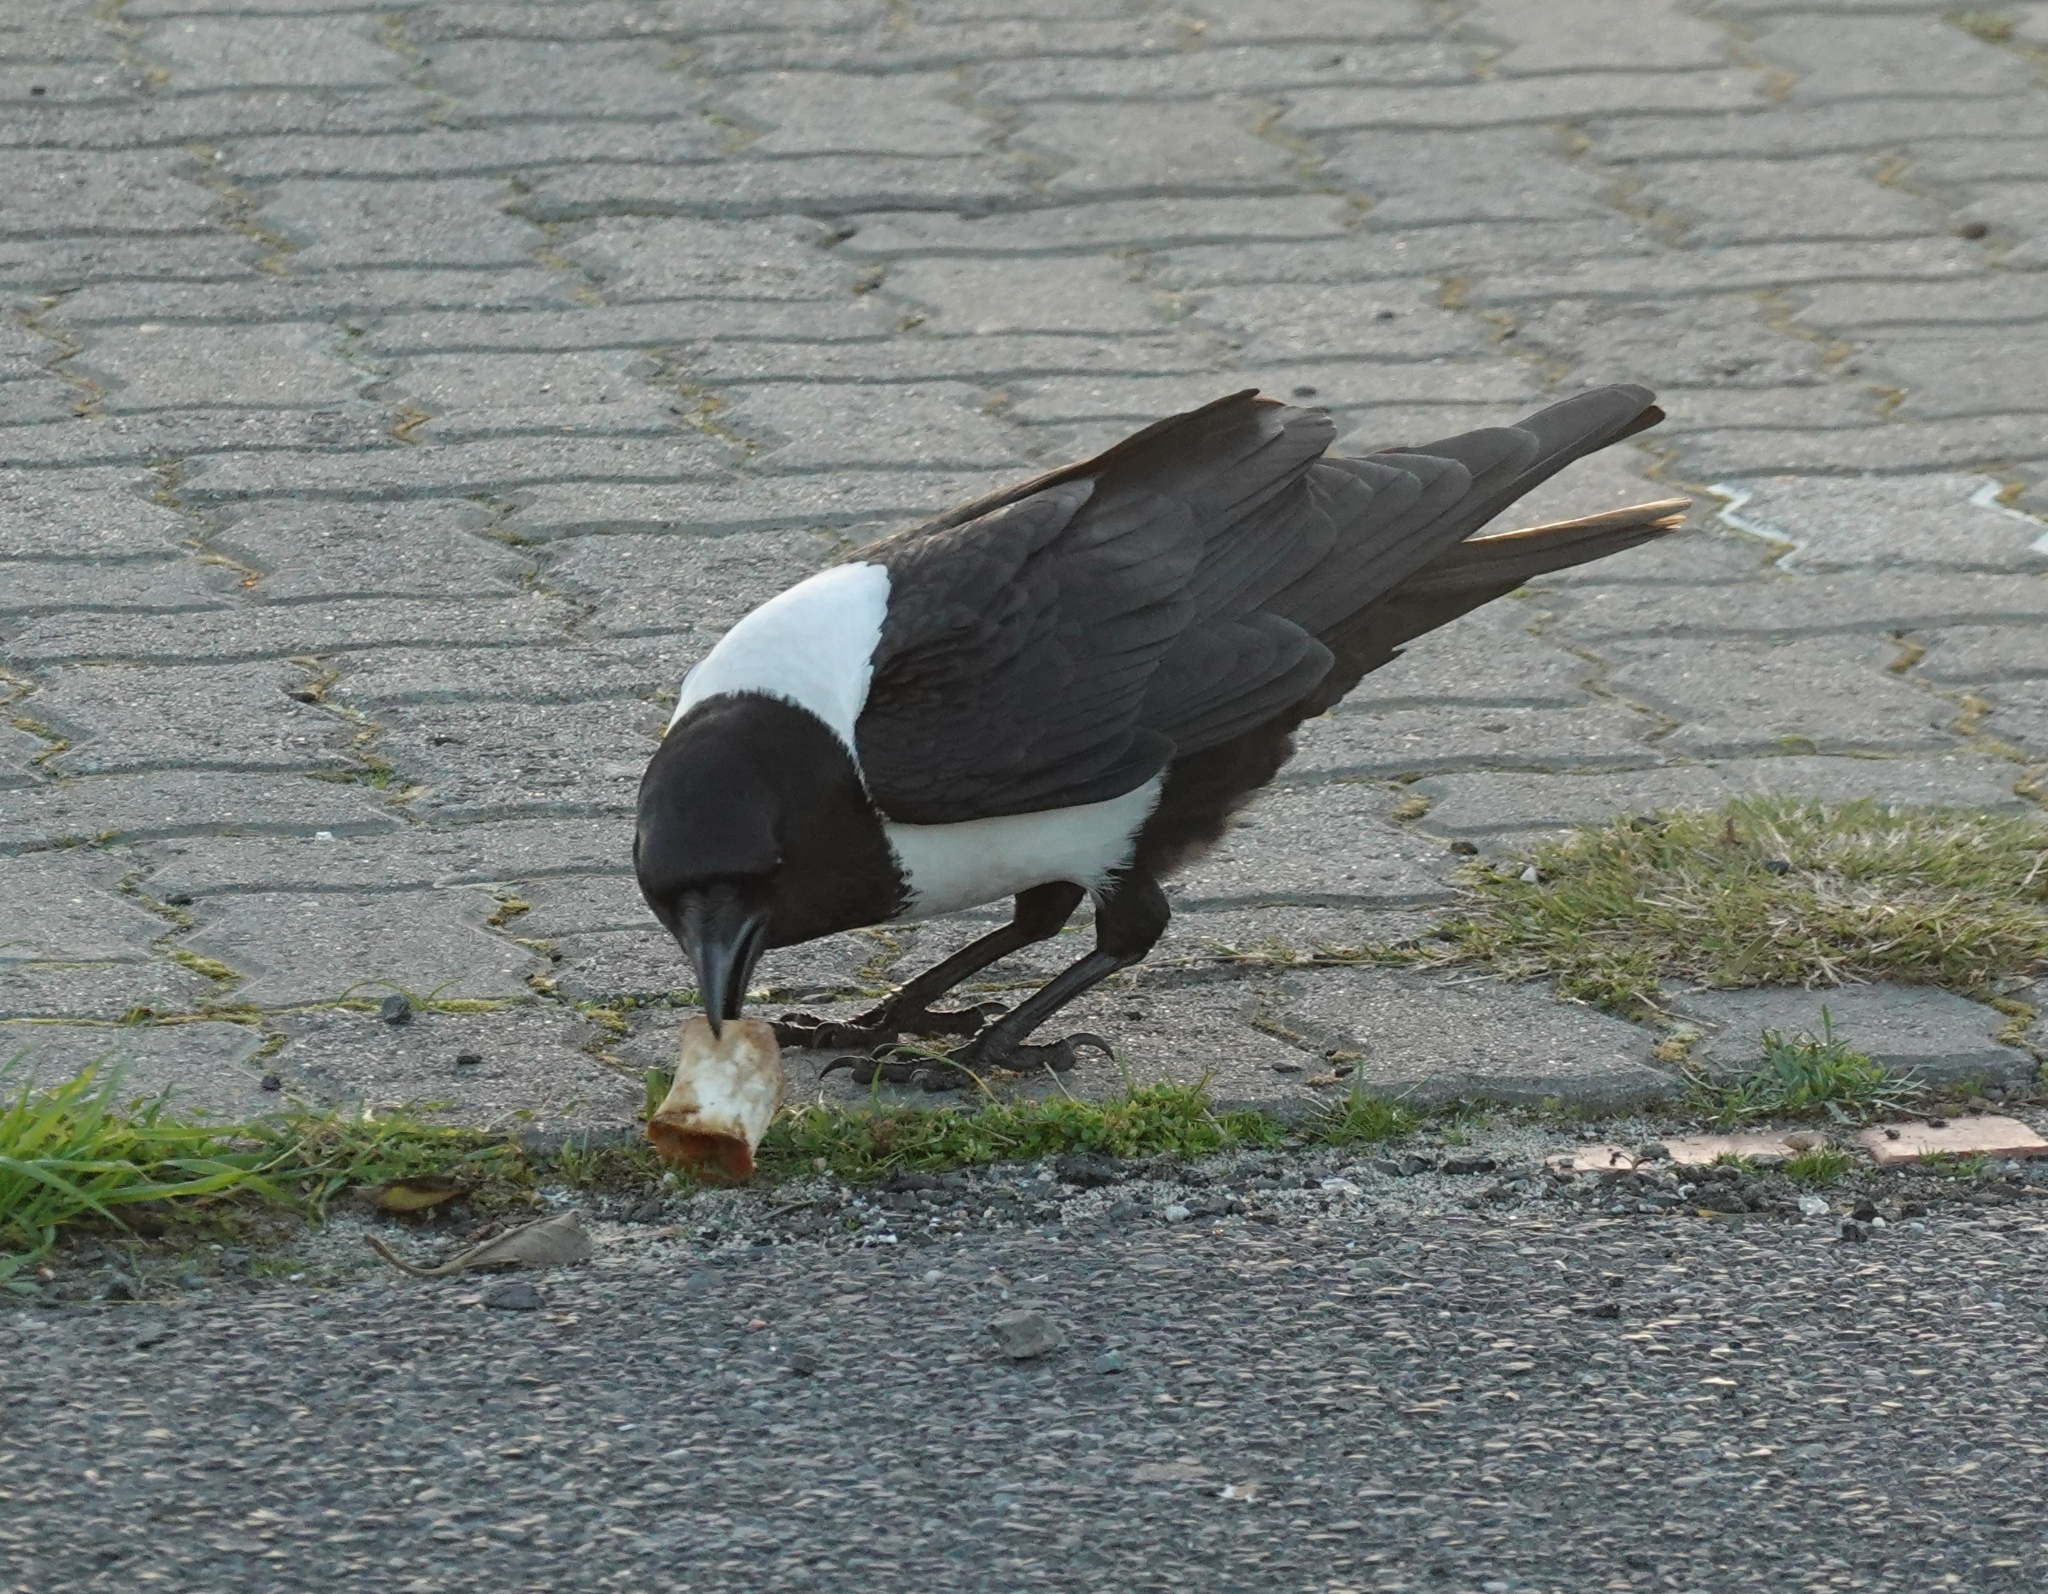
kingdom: Animalia
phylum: Chordata
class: Aves
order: Passeriformes
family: Corvidae
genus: Corvus
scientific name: Corvus albus
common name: Pied crow
